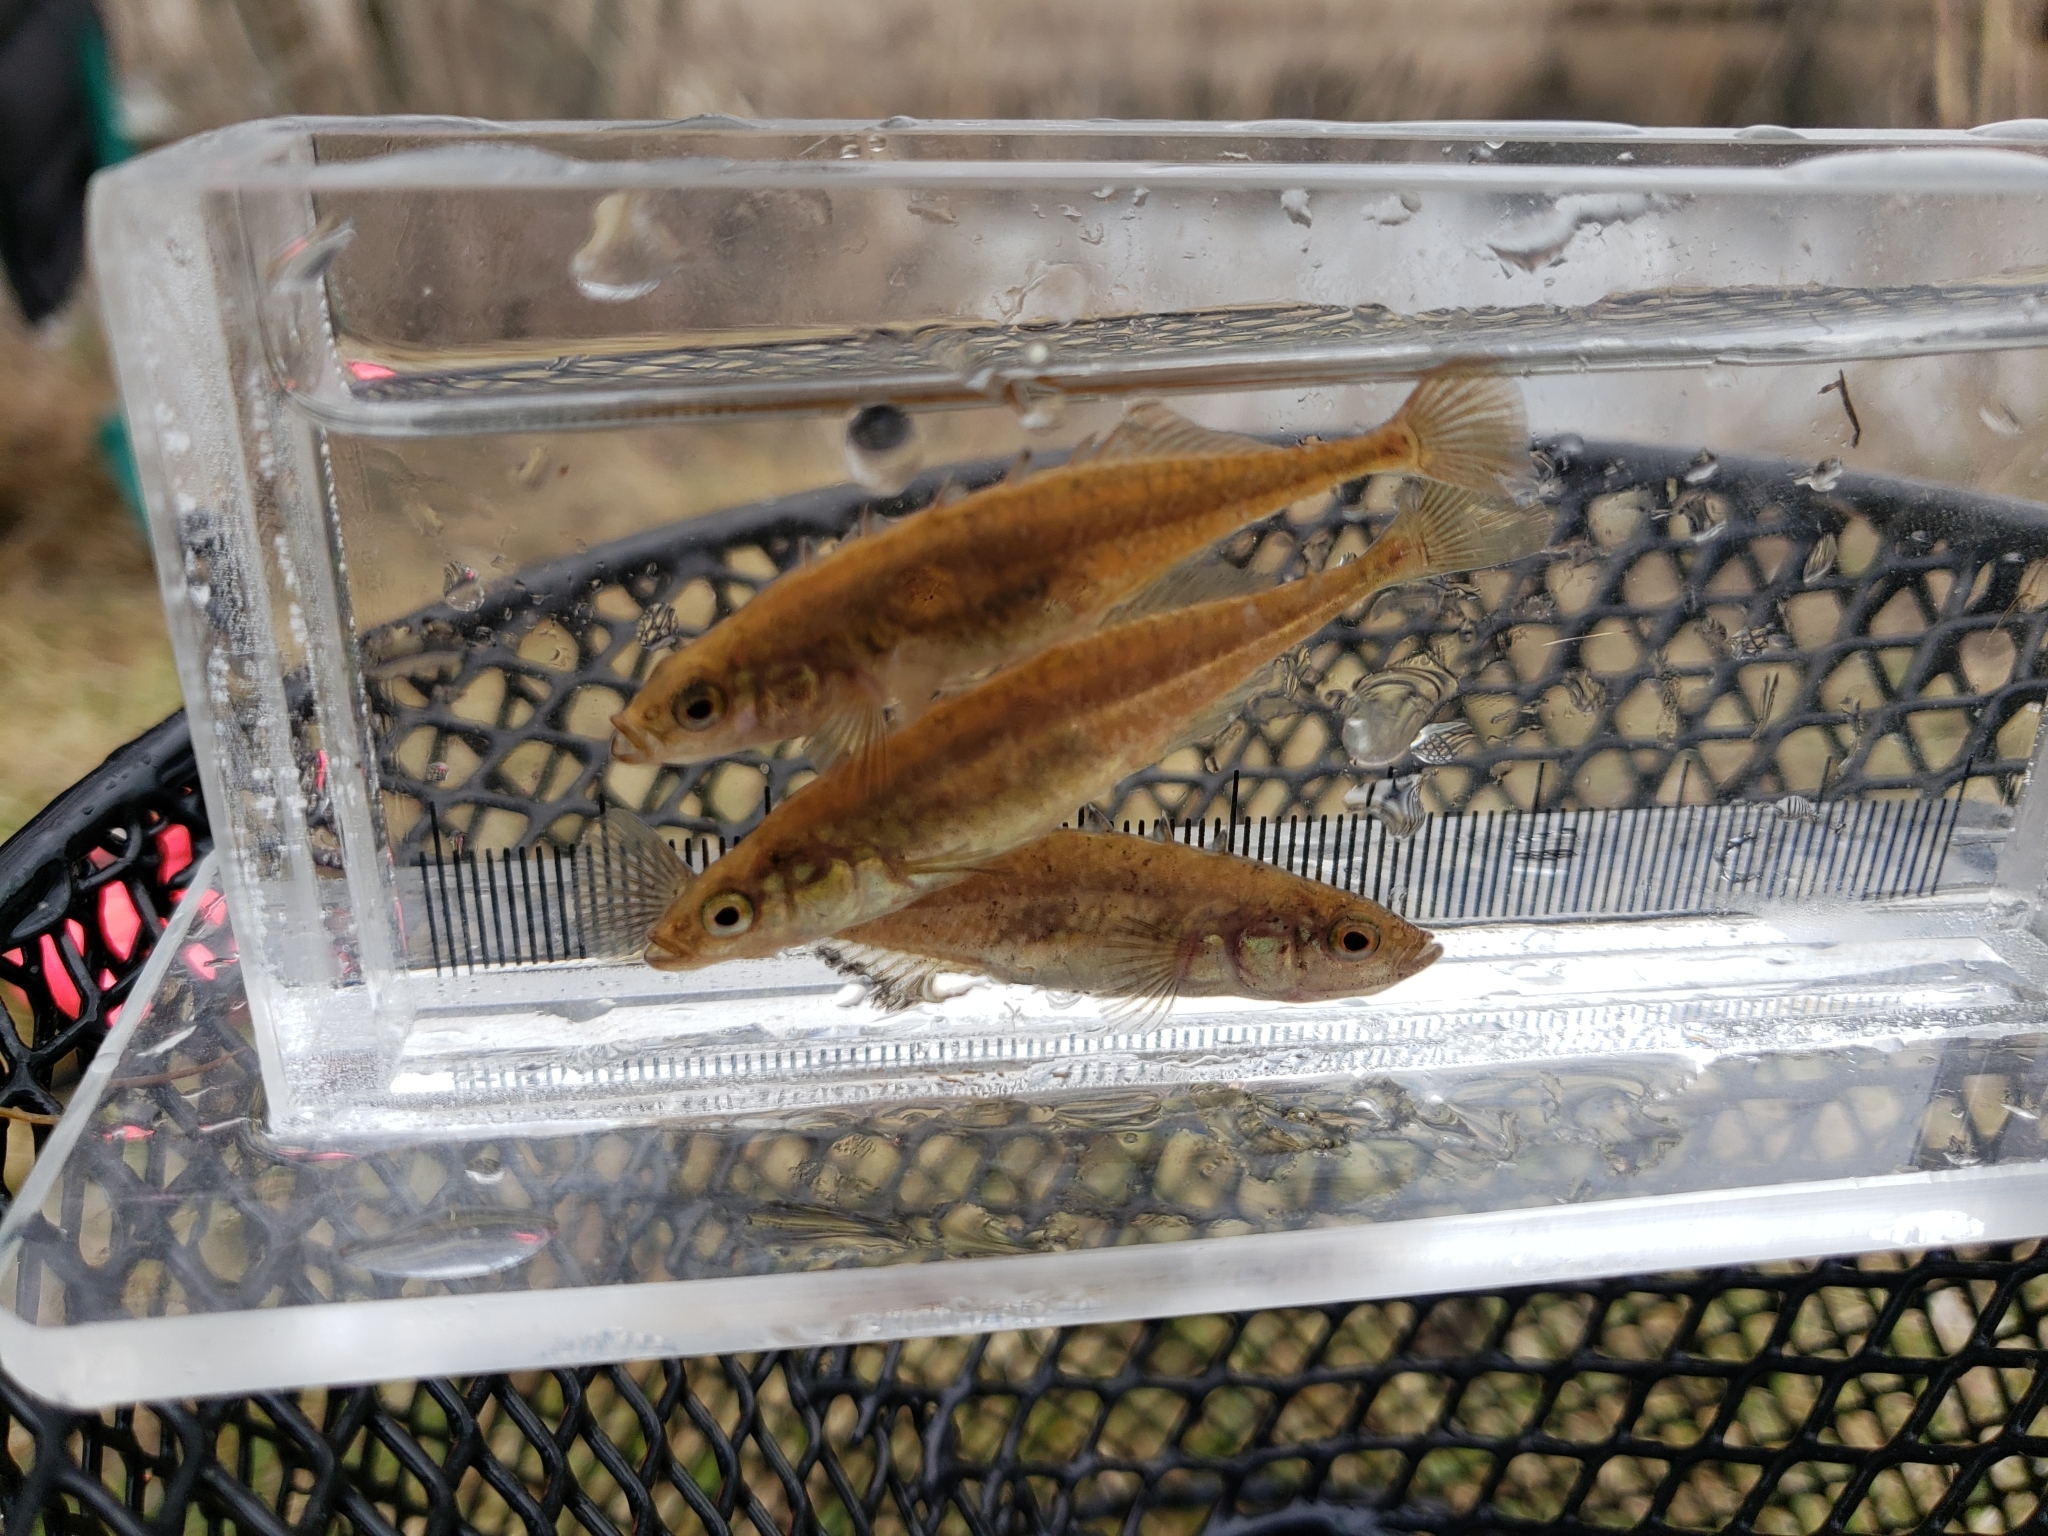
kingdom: Animalia
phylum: Chordata
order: Gasterosteiformes
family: Gasterosteidae
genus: Culaea
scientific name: Culaea inconstans
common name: Brook stickleback
